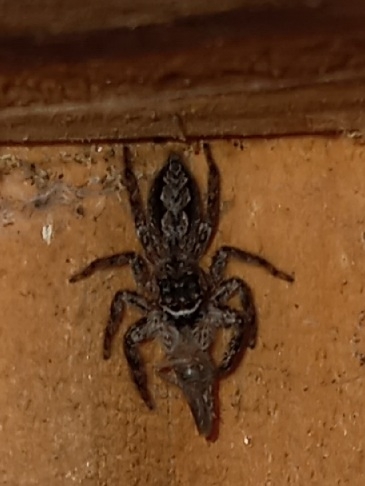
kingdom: Animalia
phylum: Arthropoda
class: Arachnida
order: Araneae
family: Salticidae
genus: Platycryptus
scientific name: Platycryptus undatus
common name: Tan jumping spider
